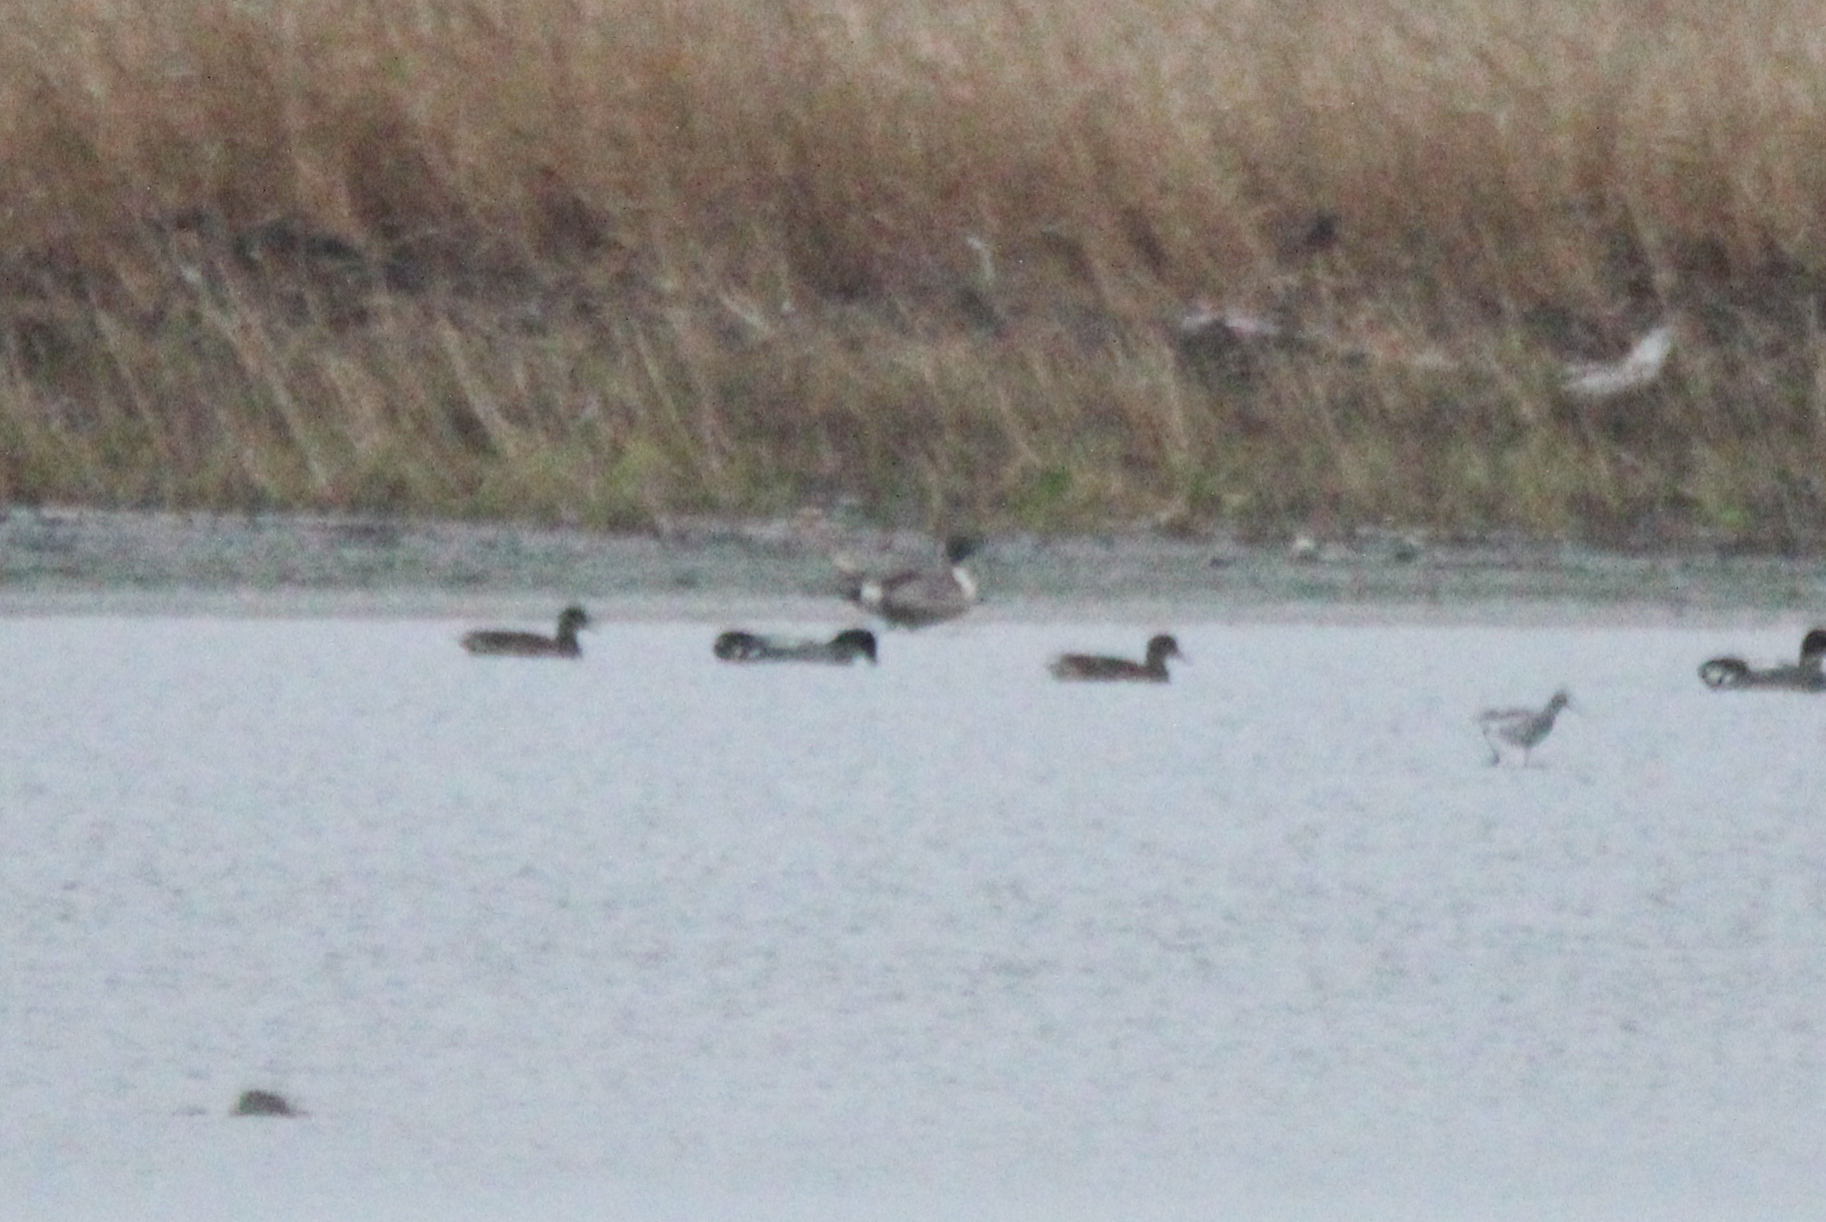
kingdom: Animalia
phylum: Chordata
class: Aves
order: Anseriformes
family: Anatidae
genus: Mareca
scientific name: Mareca falcata
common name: Falcated duck
